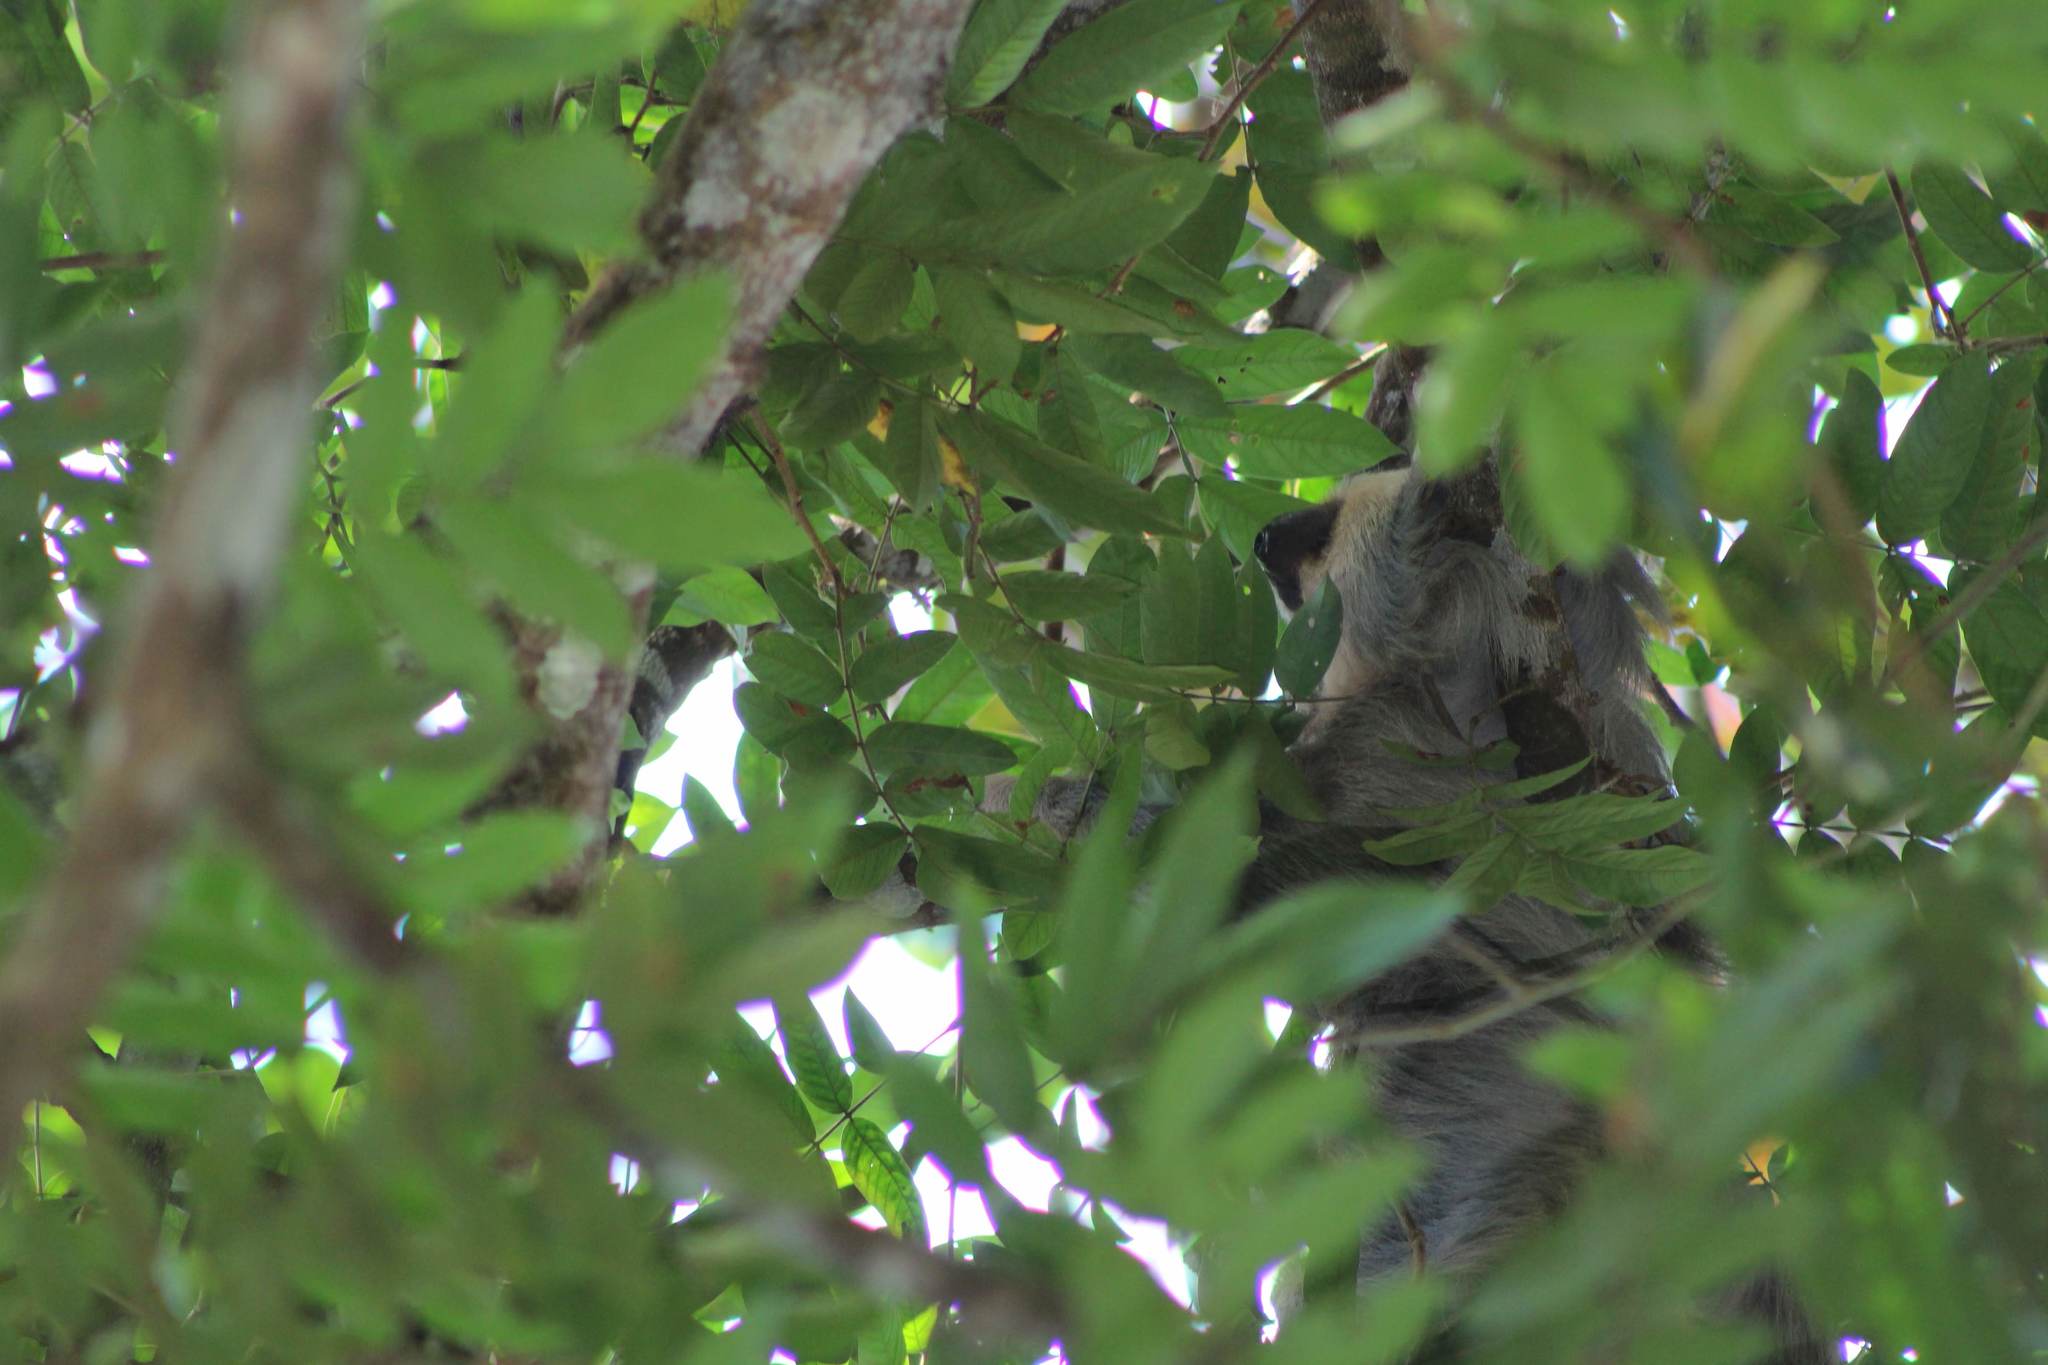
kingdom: Animalia
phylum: Chordata
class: Mammalia
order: Pilosa
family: Megalonychidae
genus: Choloepus
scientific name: Choloepus hoffmanni
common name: Hoffmann's two-toed sloth
